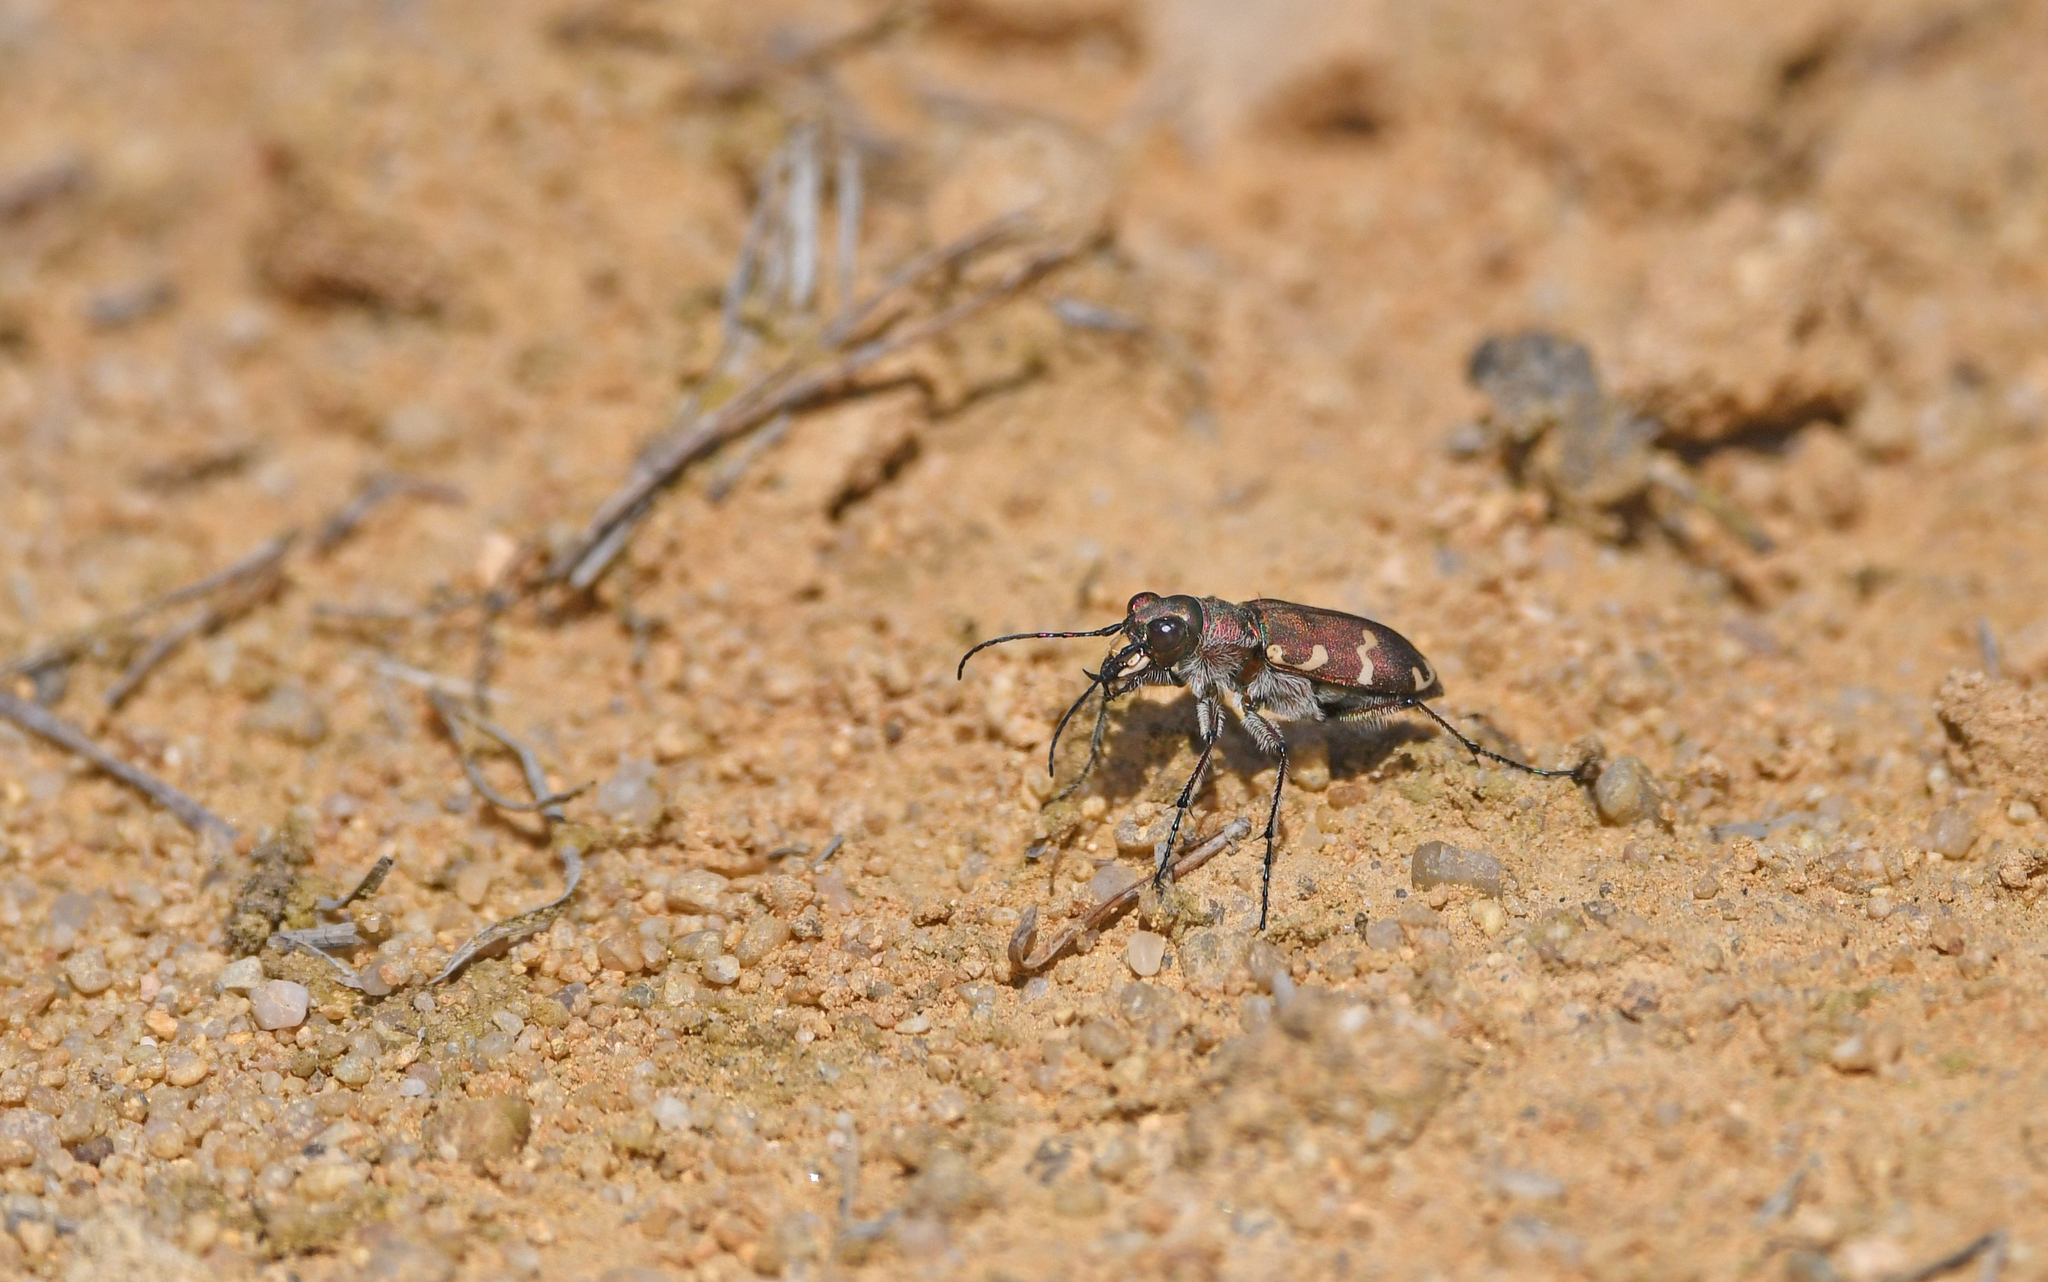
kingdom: Animalia
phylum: Arthropoda
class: Insecta
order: Coleoptera
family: Carabidae
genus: Cicindela
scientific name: Cicindela hybrida
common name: Northern dune tiger beetle
